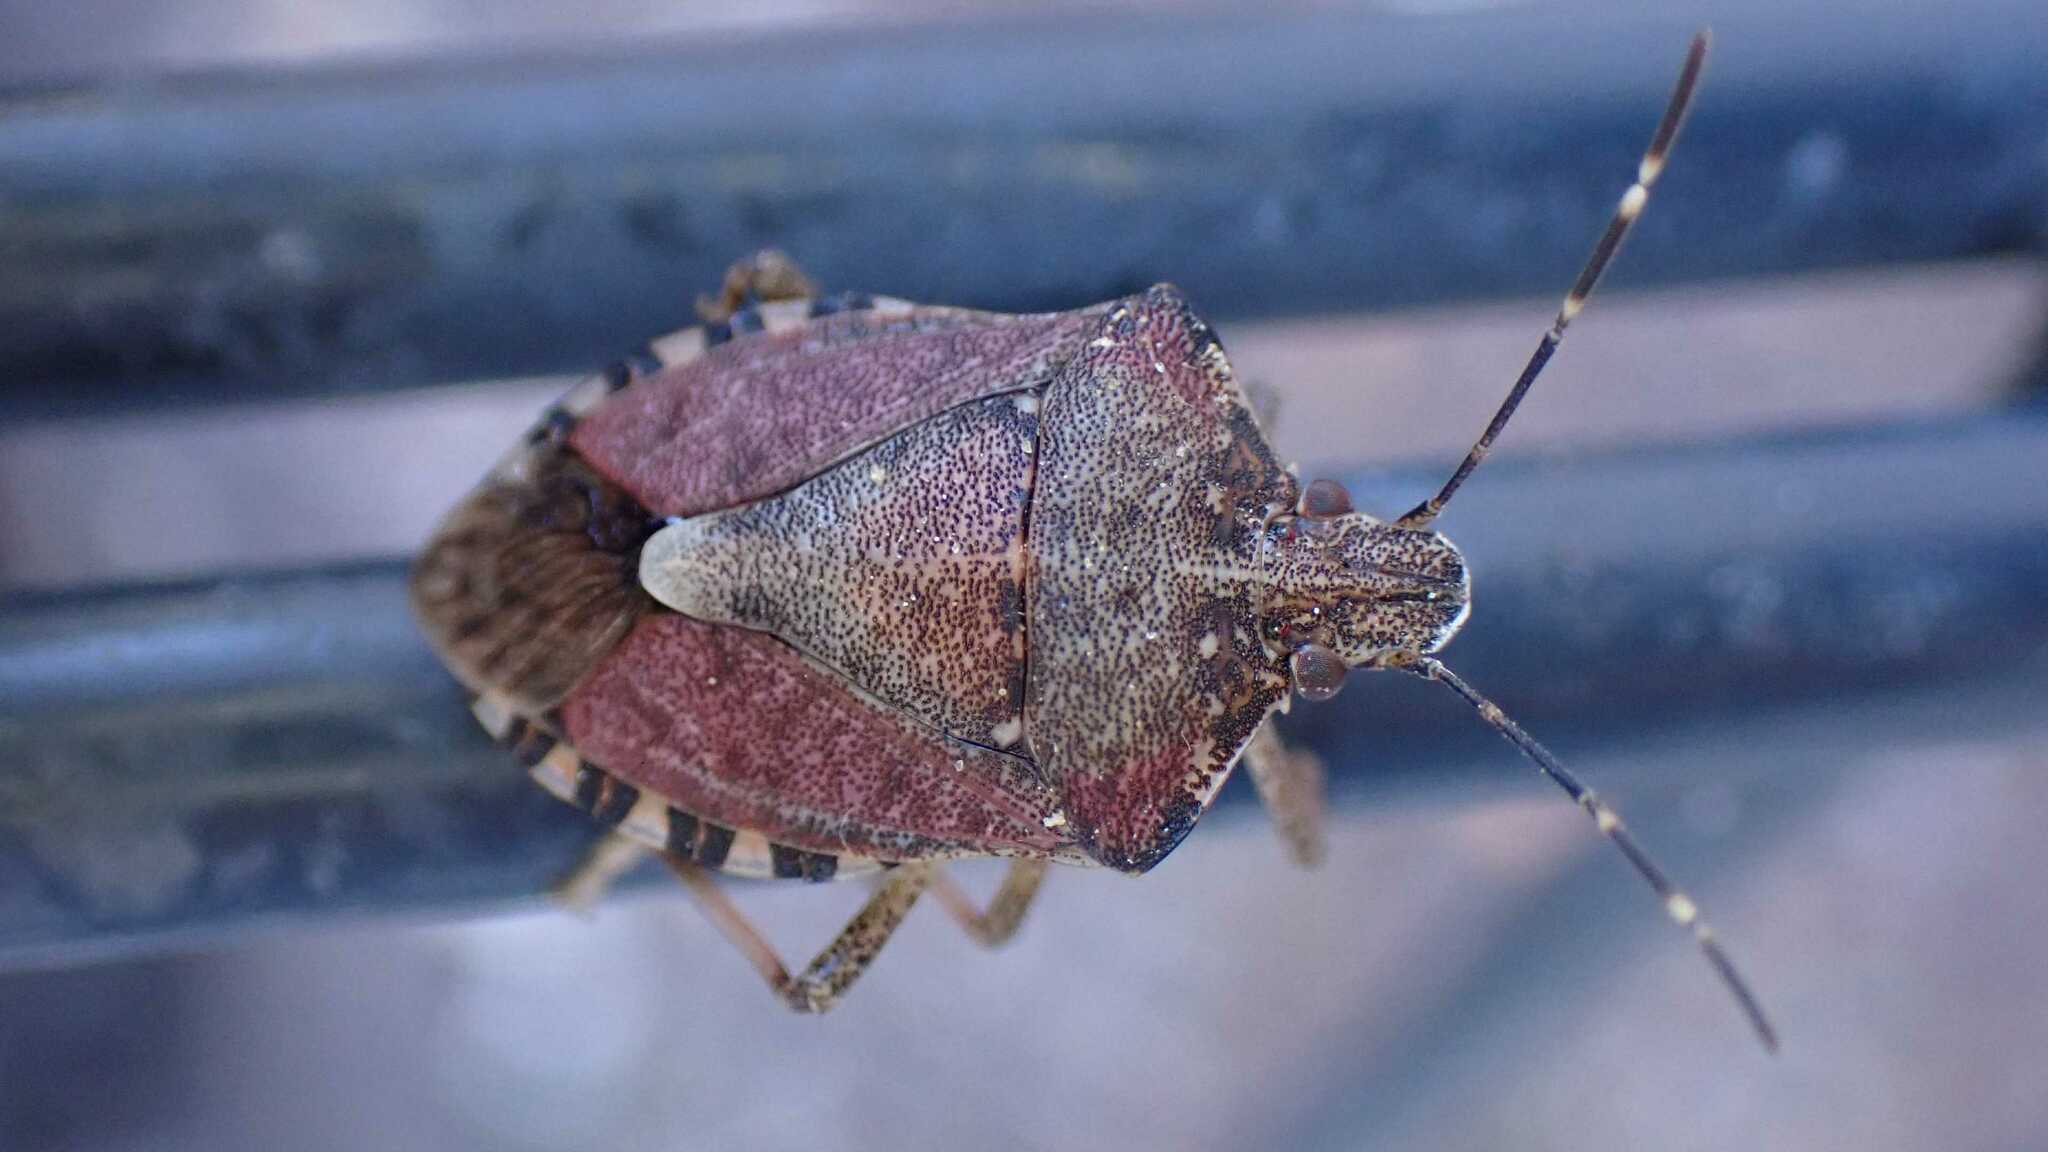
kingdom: Animalia
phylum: Arthropoda
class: Insecta
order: Hemiptera
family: Pentatomidae
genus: Halyomorpha
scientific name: Halyomorpha halys
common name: Brown marmorated stink bug
